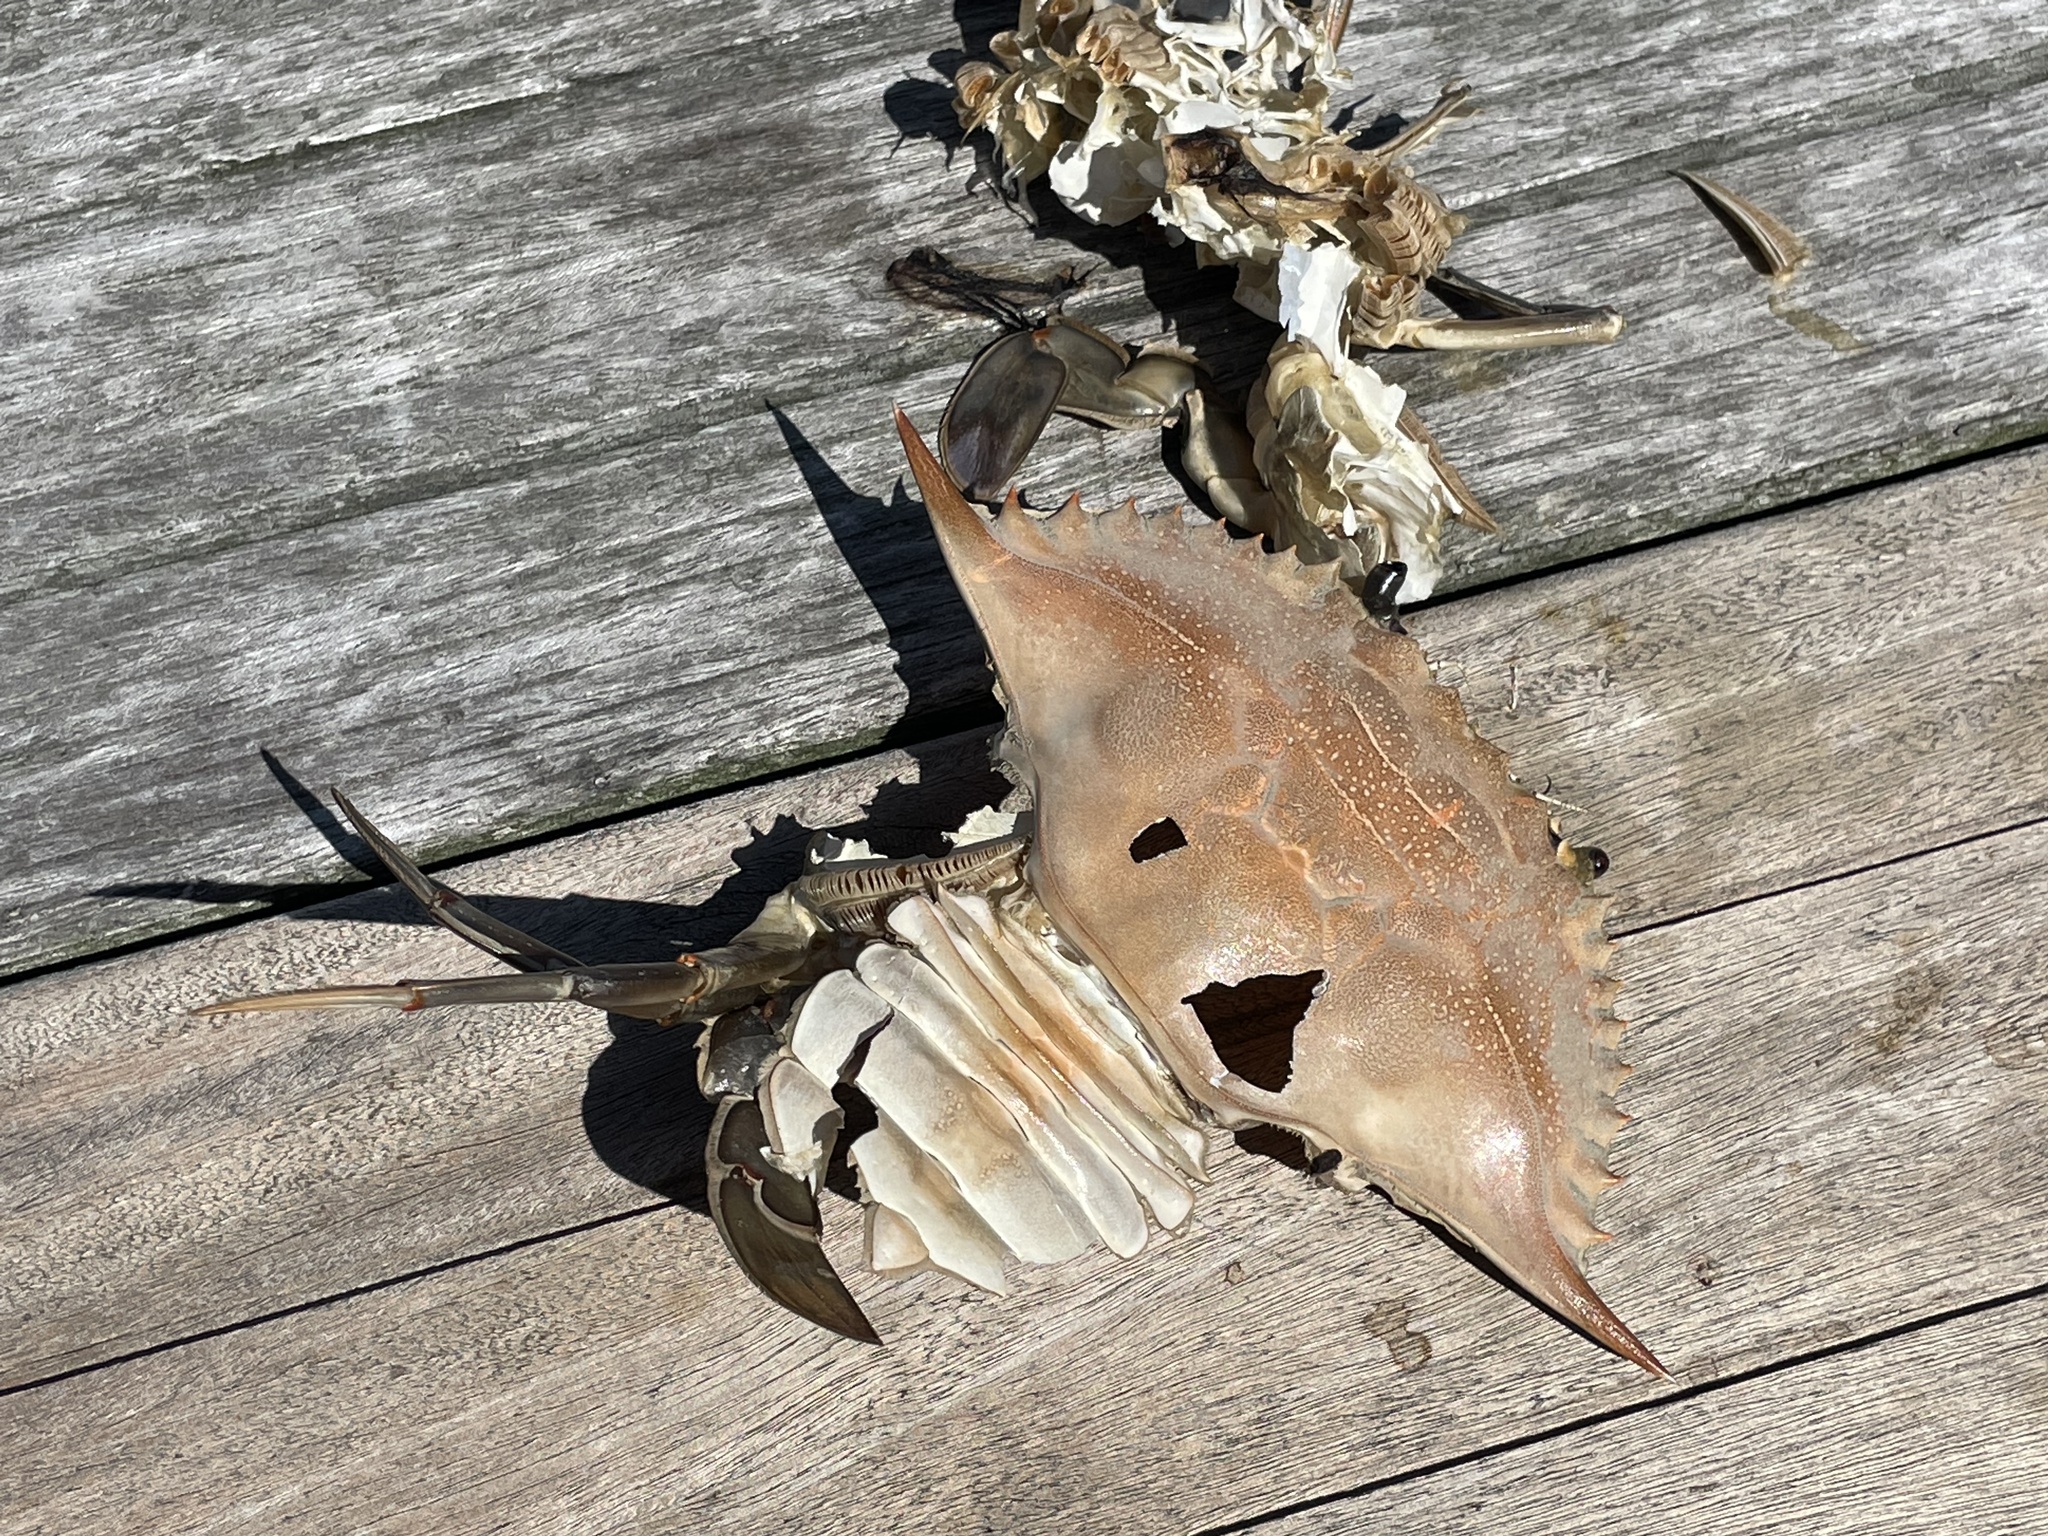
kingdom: Animalia
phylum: Arthropoda
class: Malacostraca
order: Decapoda
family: Portunidae
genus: Callinectes
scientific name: Callinectes sapidus
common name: Blue crab
